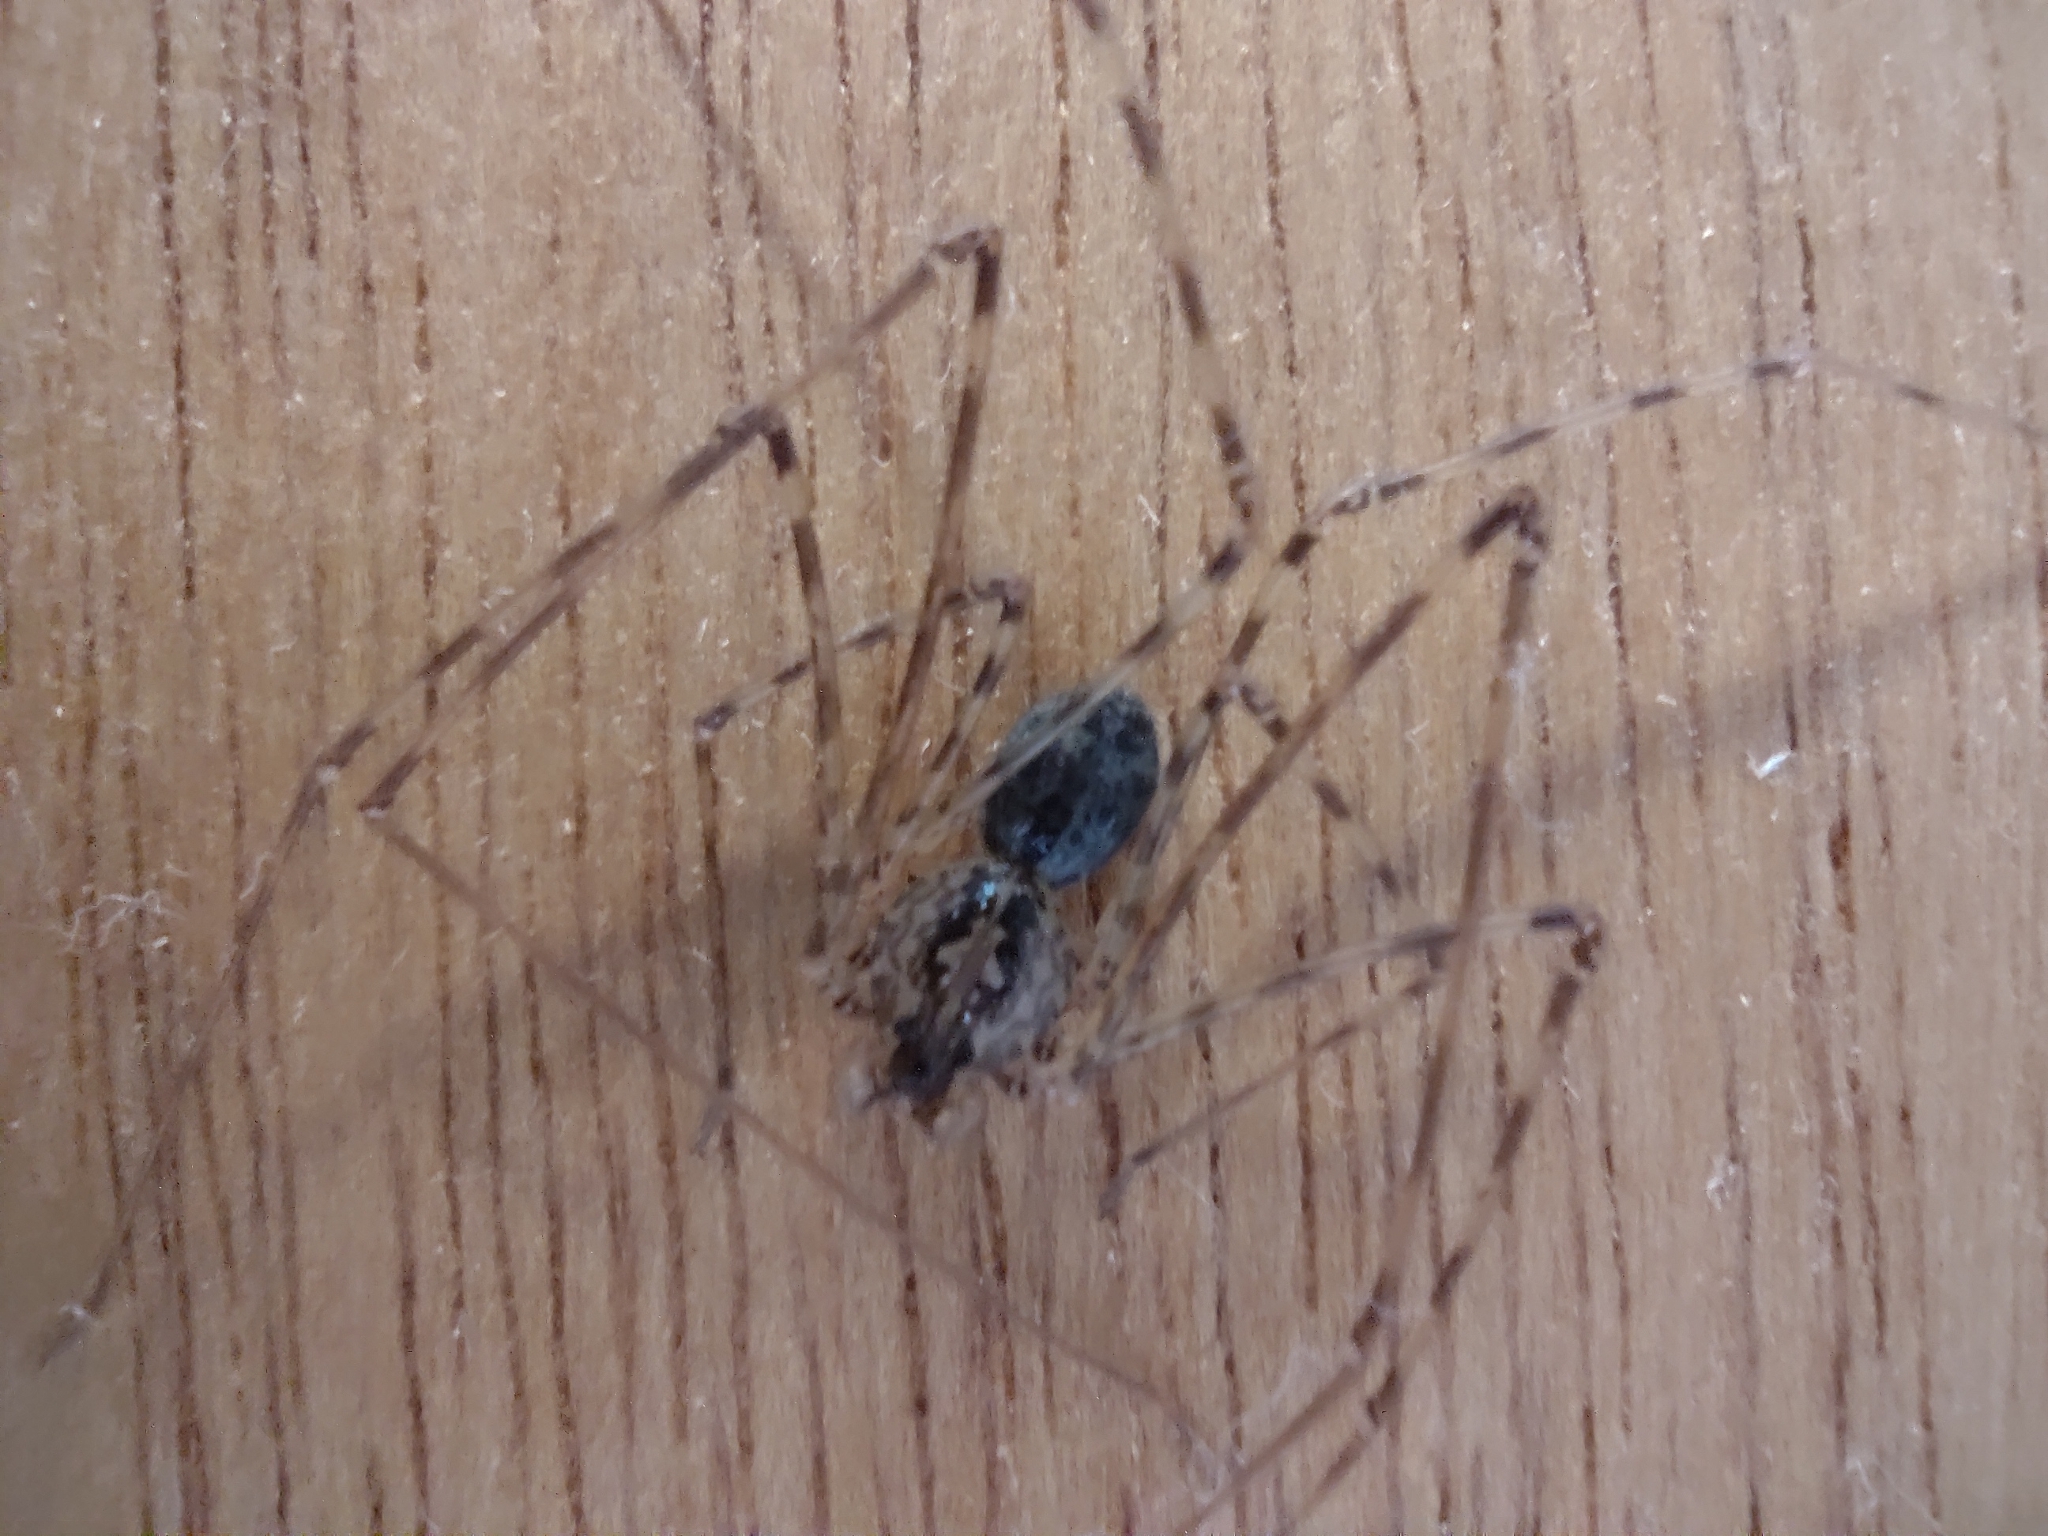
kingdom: Animalia
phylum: Arthropoda
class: Arachnida
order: Araneae
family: Scytodidae
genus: Scytodes
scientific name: Scytodes globula
